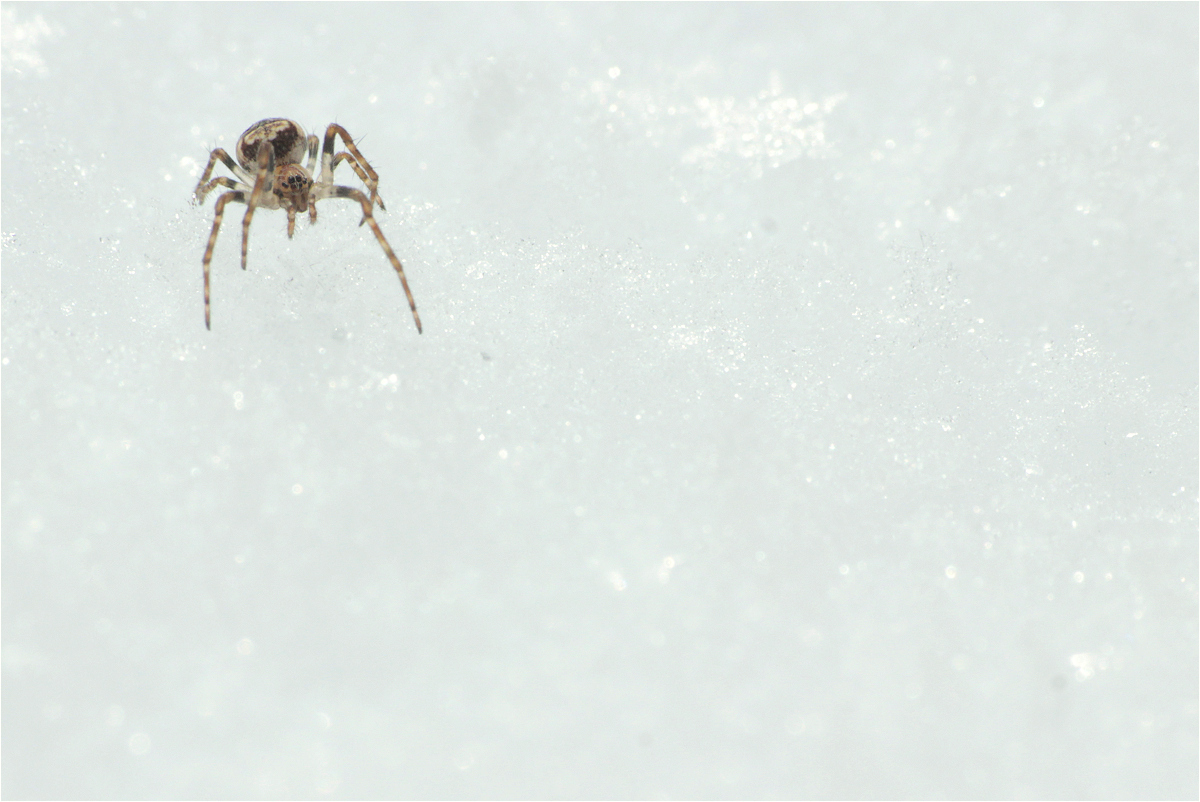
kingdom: Animalia
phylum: Arthropoda
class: Arachnida
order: Araneae
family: Araneidae
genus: Zilla
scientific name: Zilla diodia
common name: Zilla diodia
